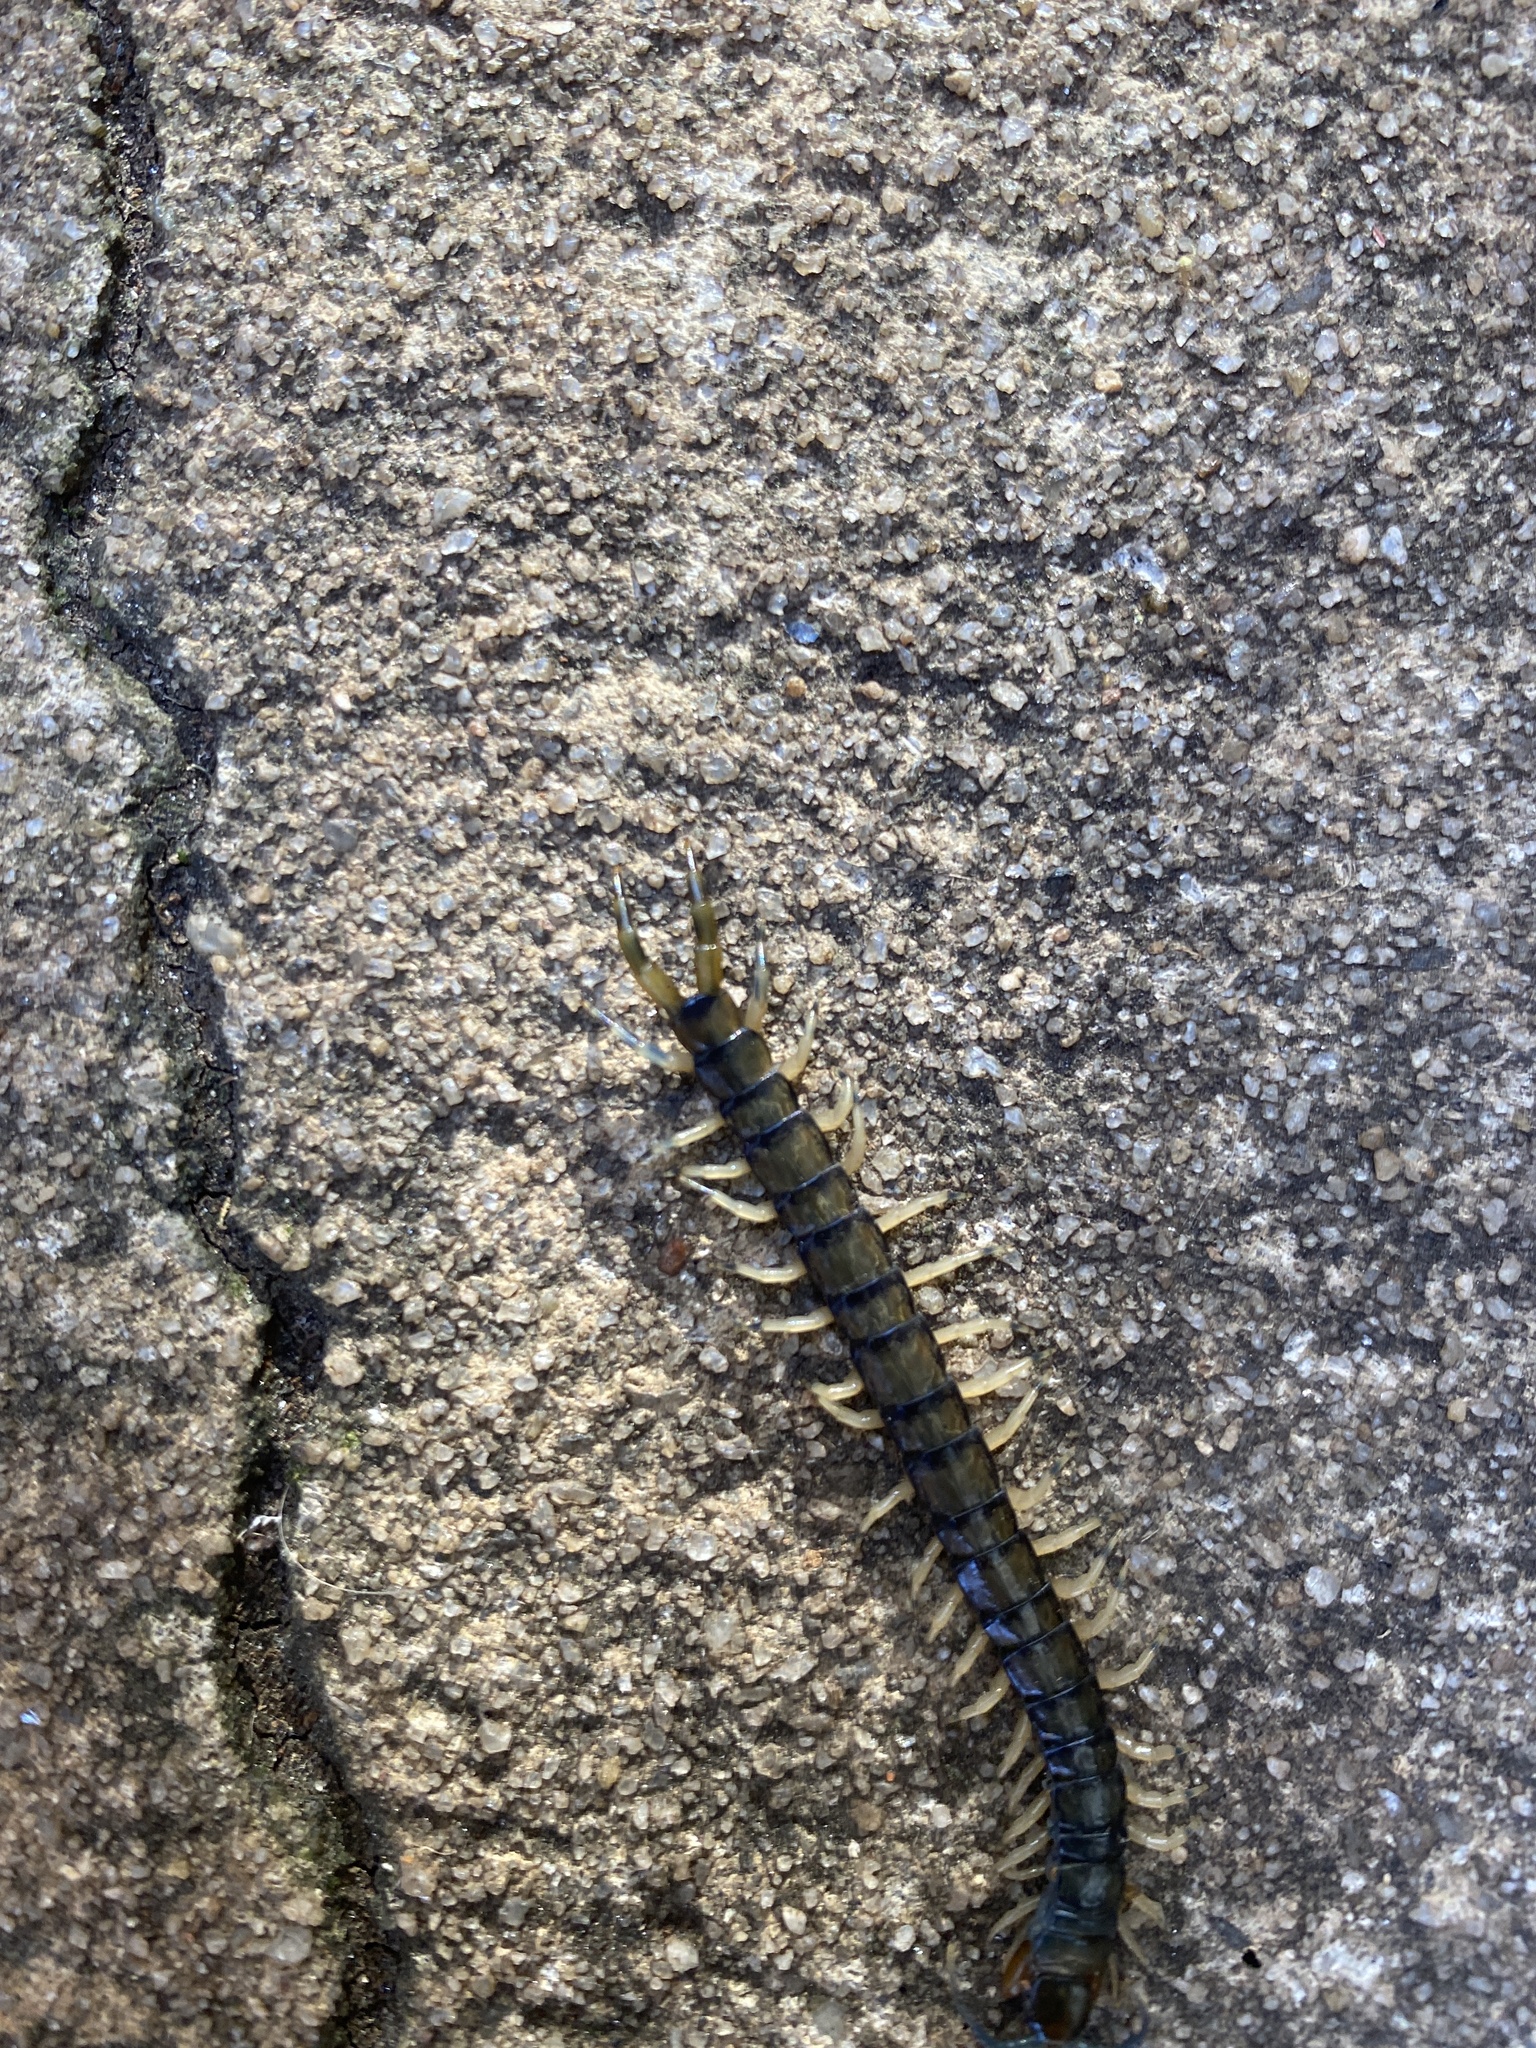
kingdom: Animalia
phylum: Arthropoda
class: Chilopoda
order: Scolopendromorpha
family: Scolopendridae
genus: Hemiscolopendra
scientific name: Hemiscolopendra marginata
